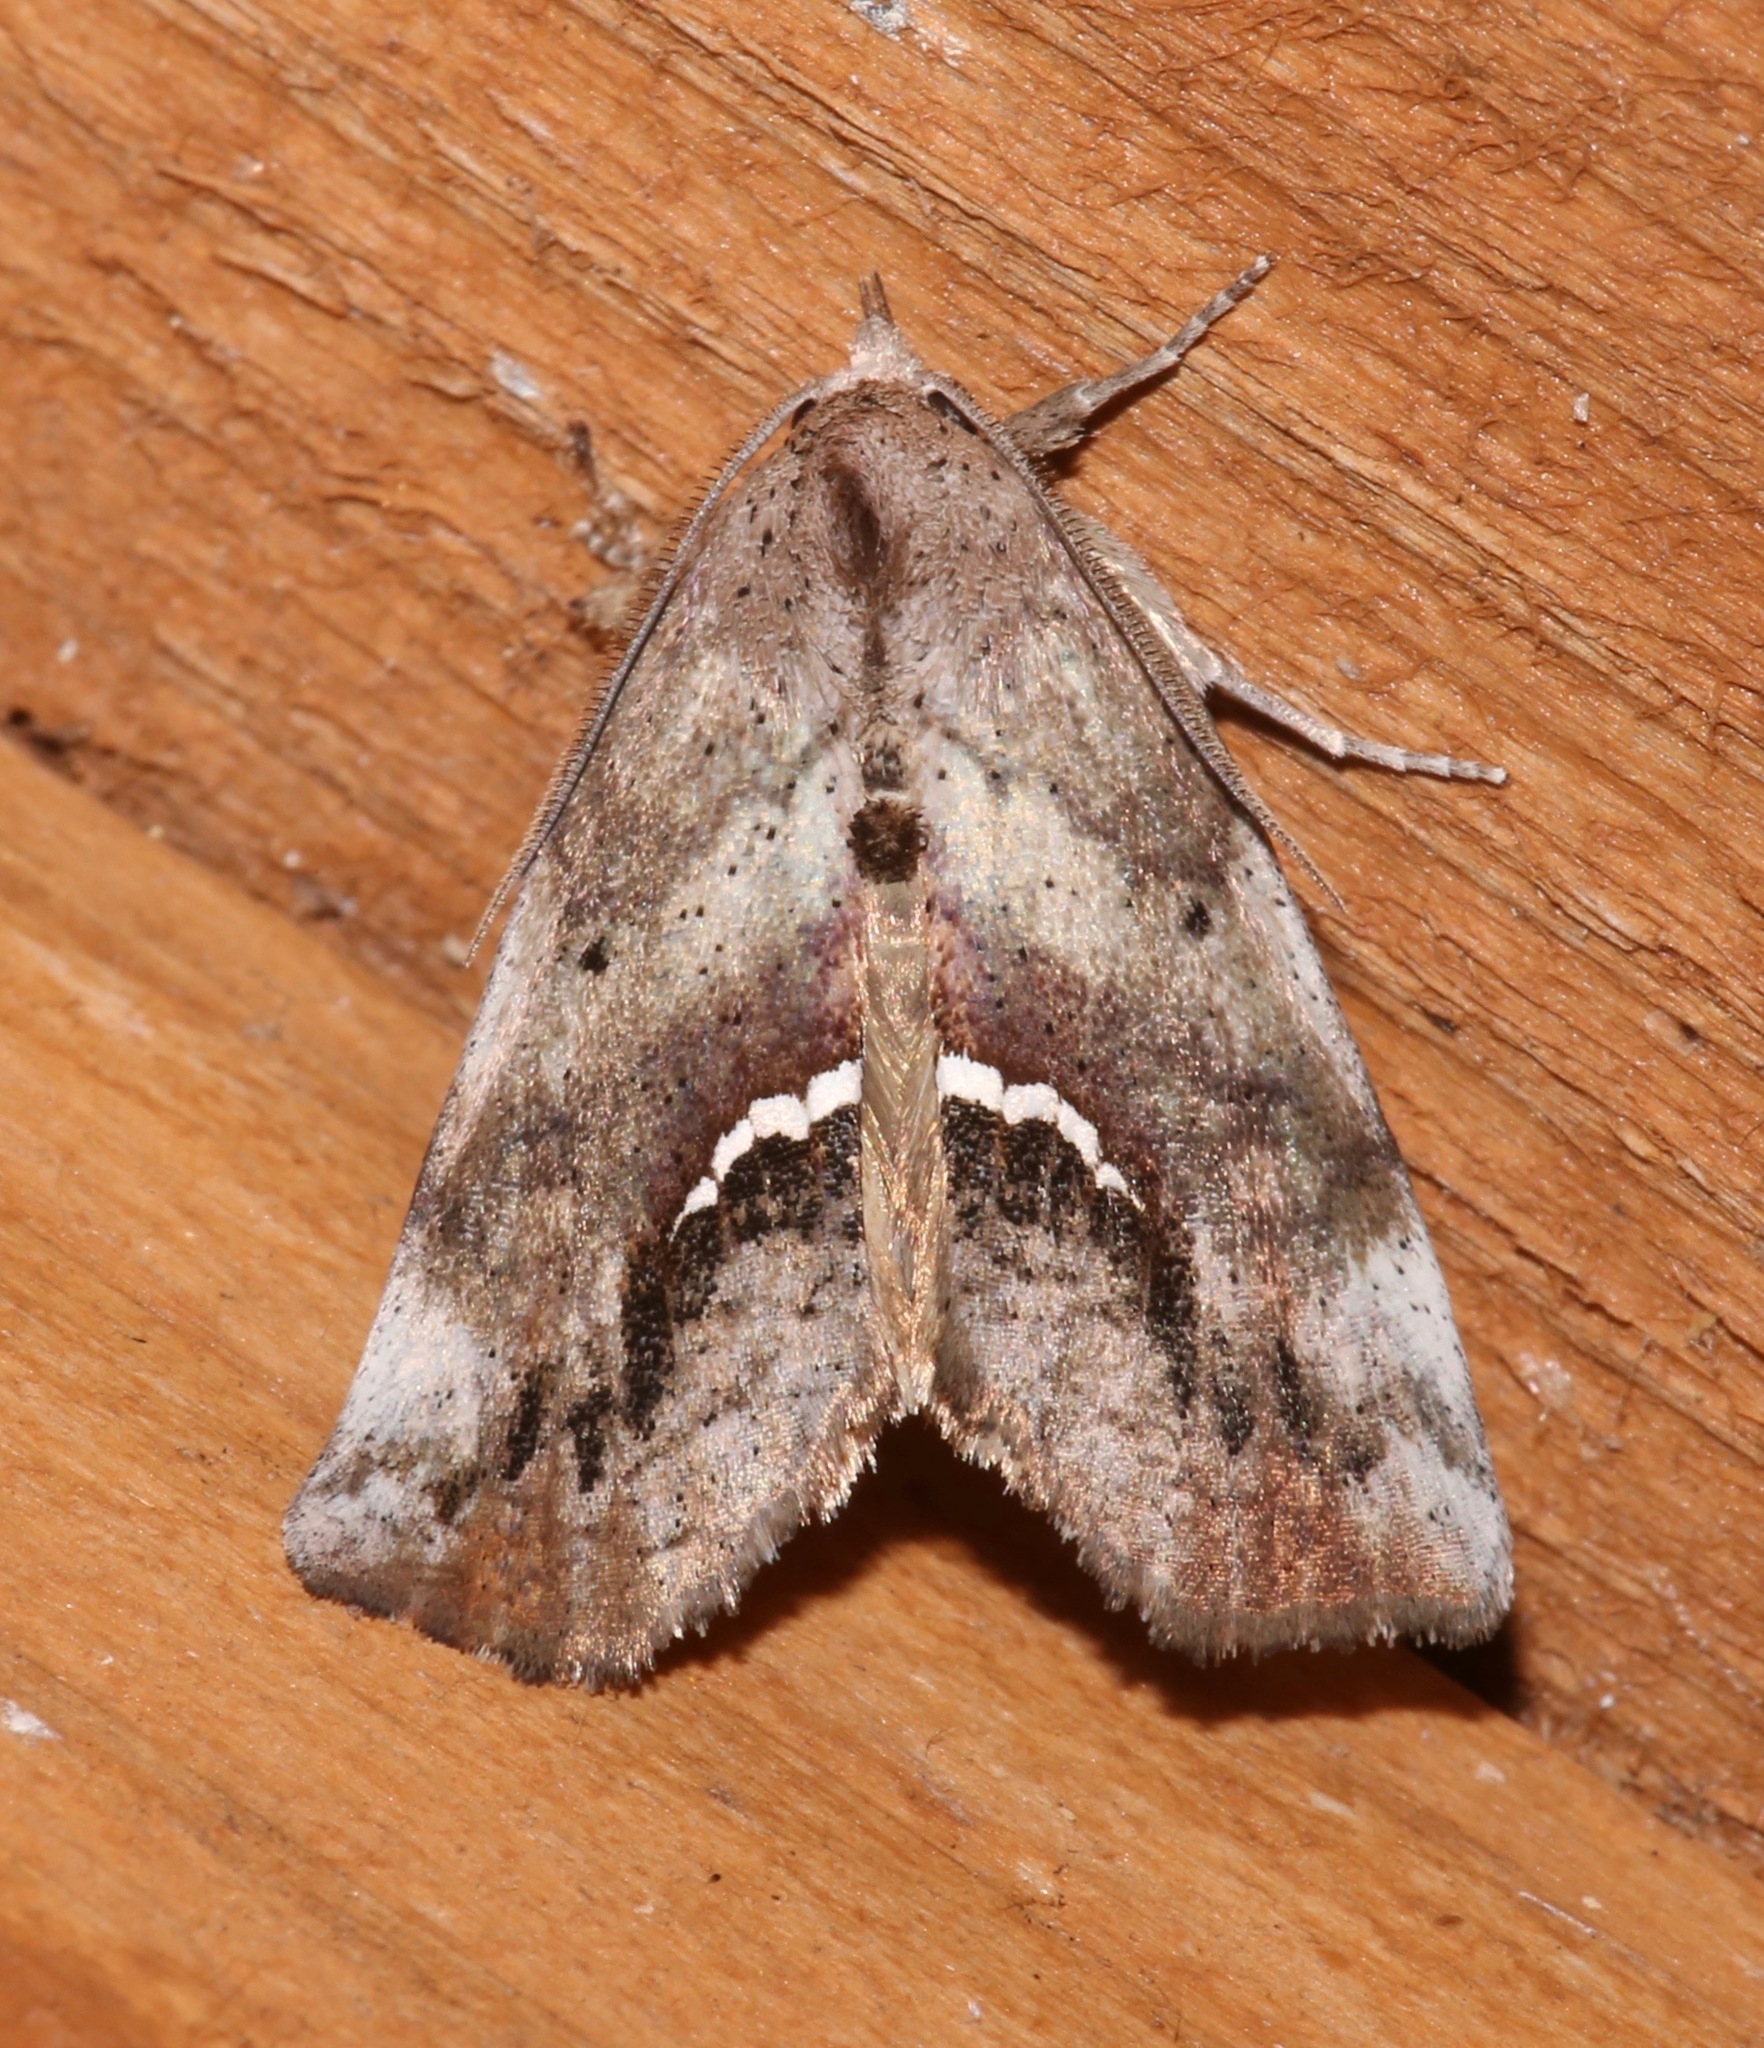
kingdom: Animalia
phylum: Arthropoda
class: Insecta
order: Lepidoptera
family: Erebidae
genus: Hypsoropha
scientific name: Hypsoropha hormos
